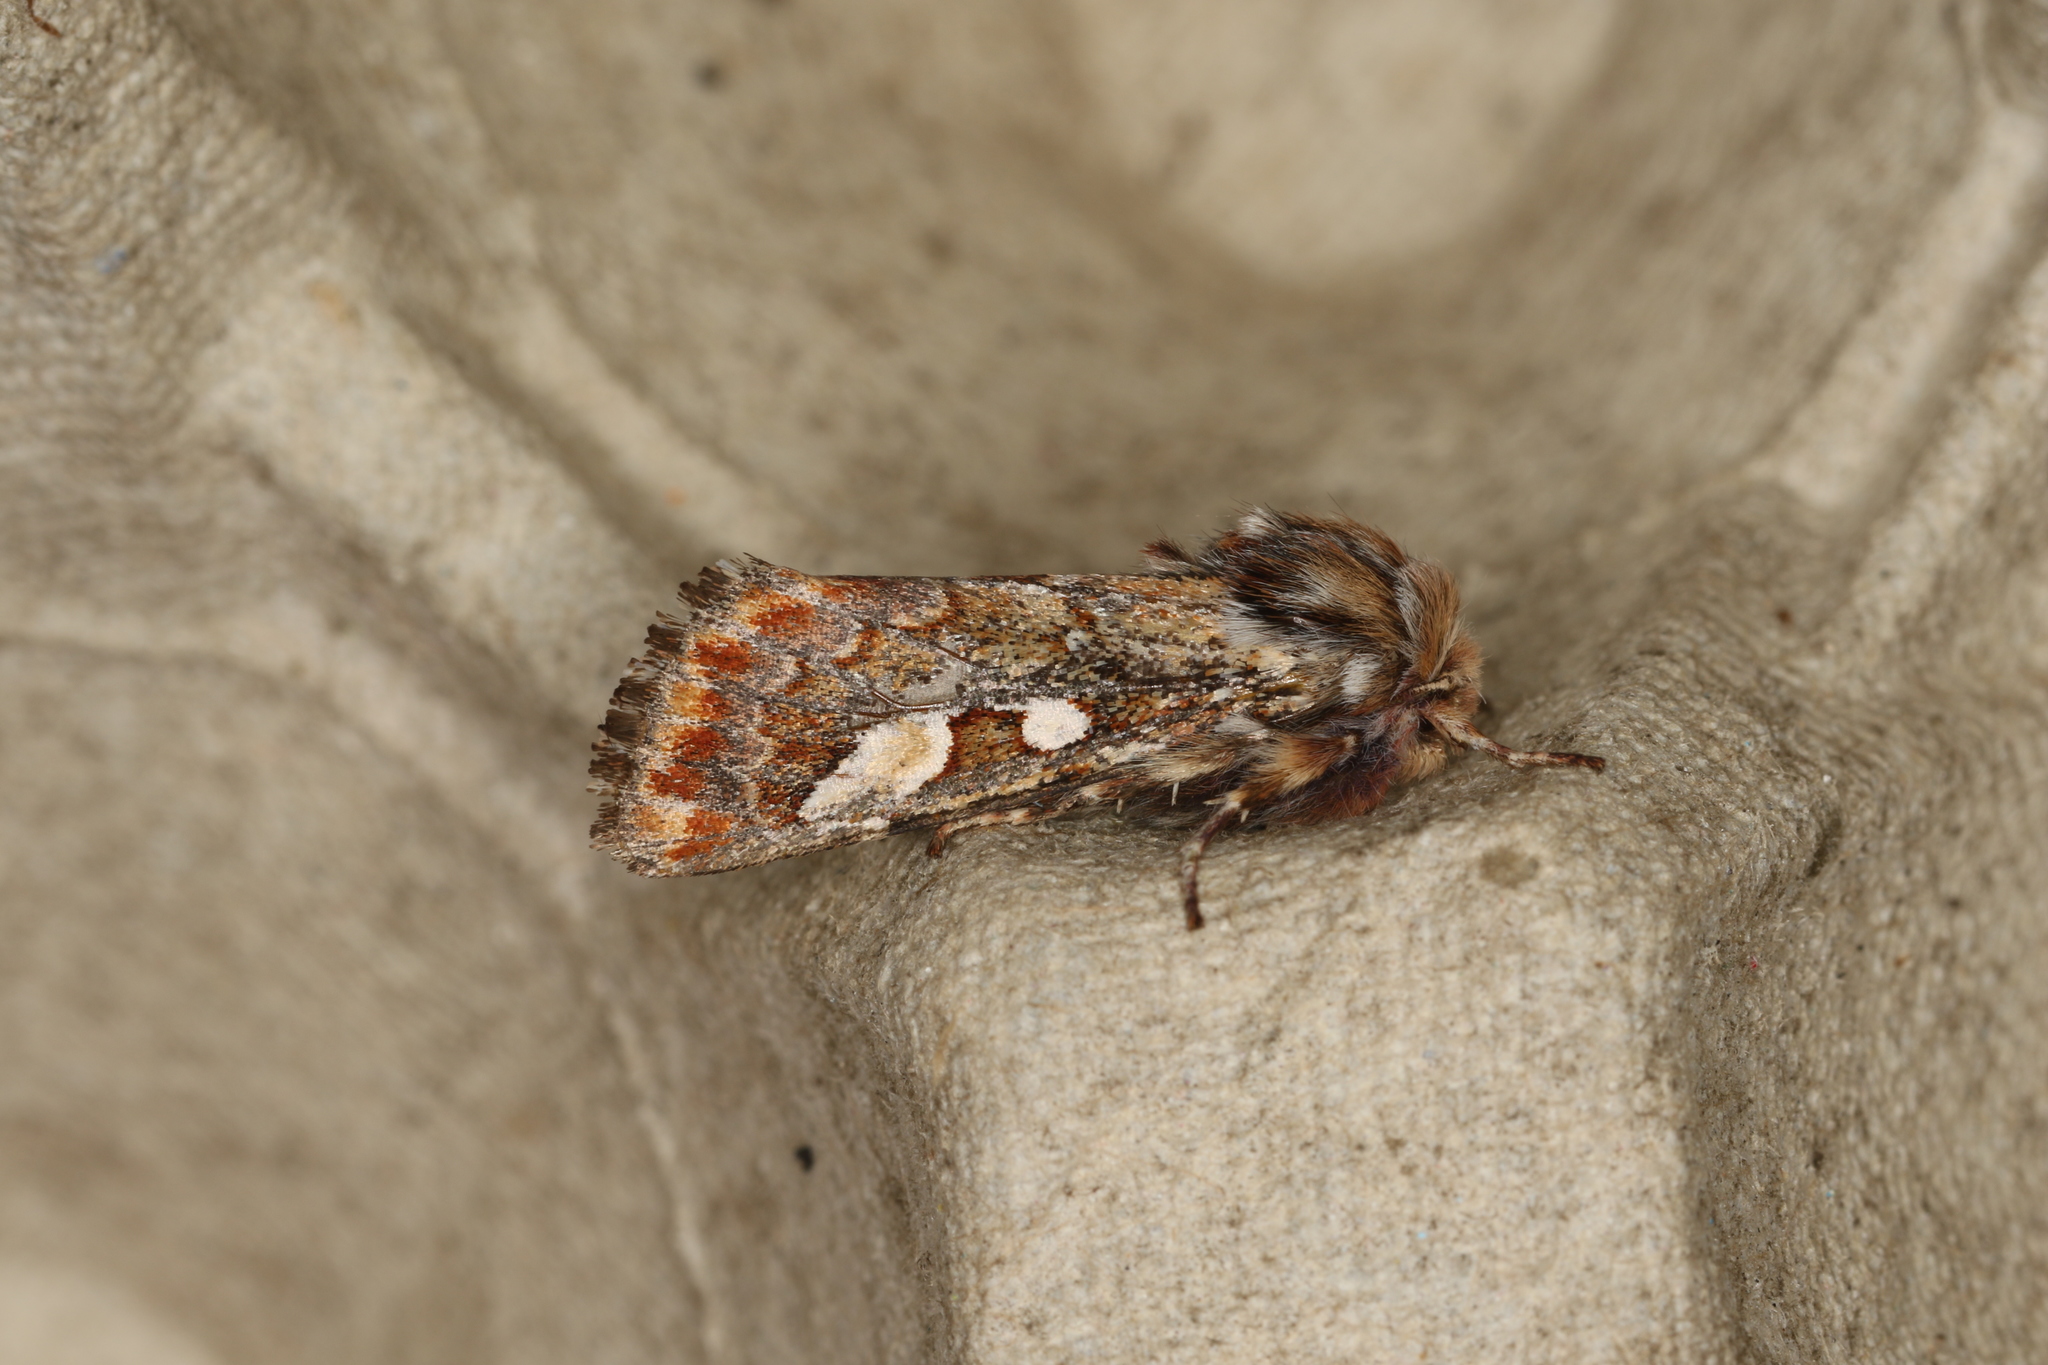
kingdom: Animalia
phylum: Arthropoda
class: Insecta
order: Lepidoptera
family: Noctuidae
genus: Panolis
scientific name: Panolis flammea
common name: Pine beauty
